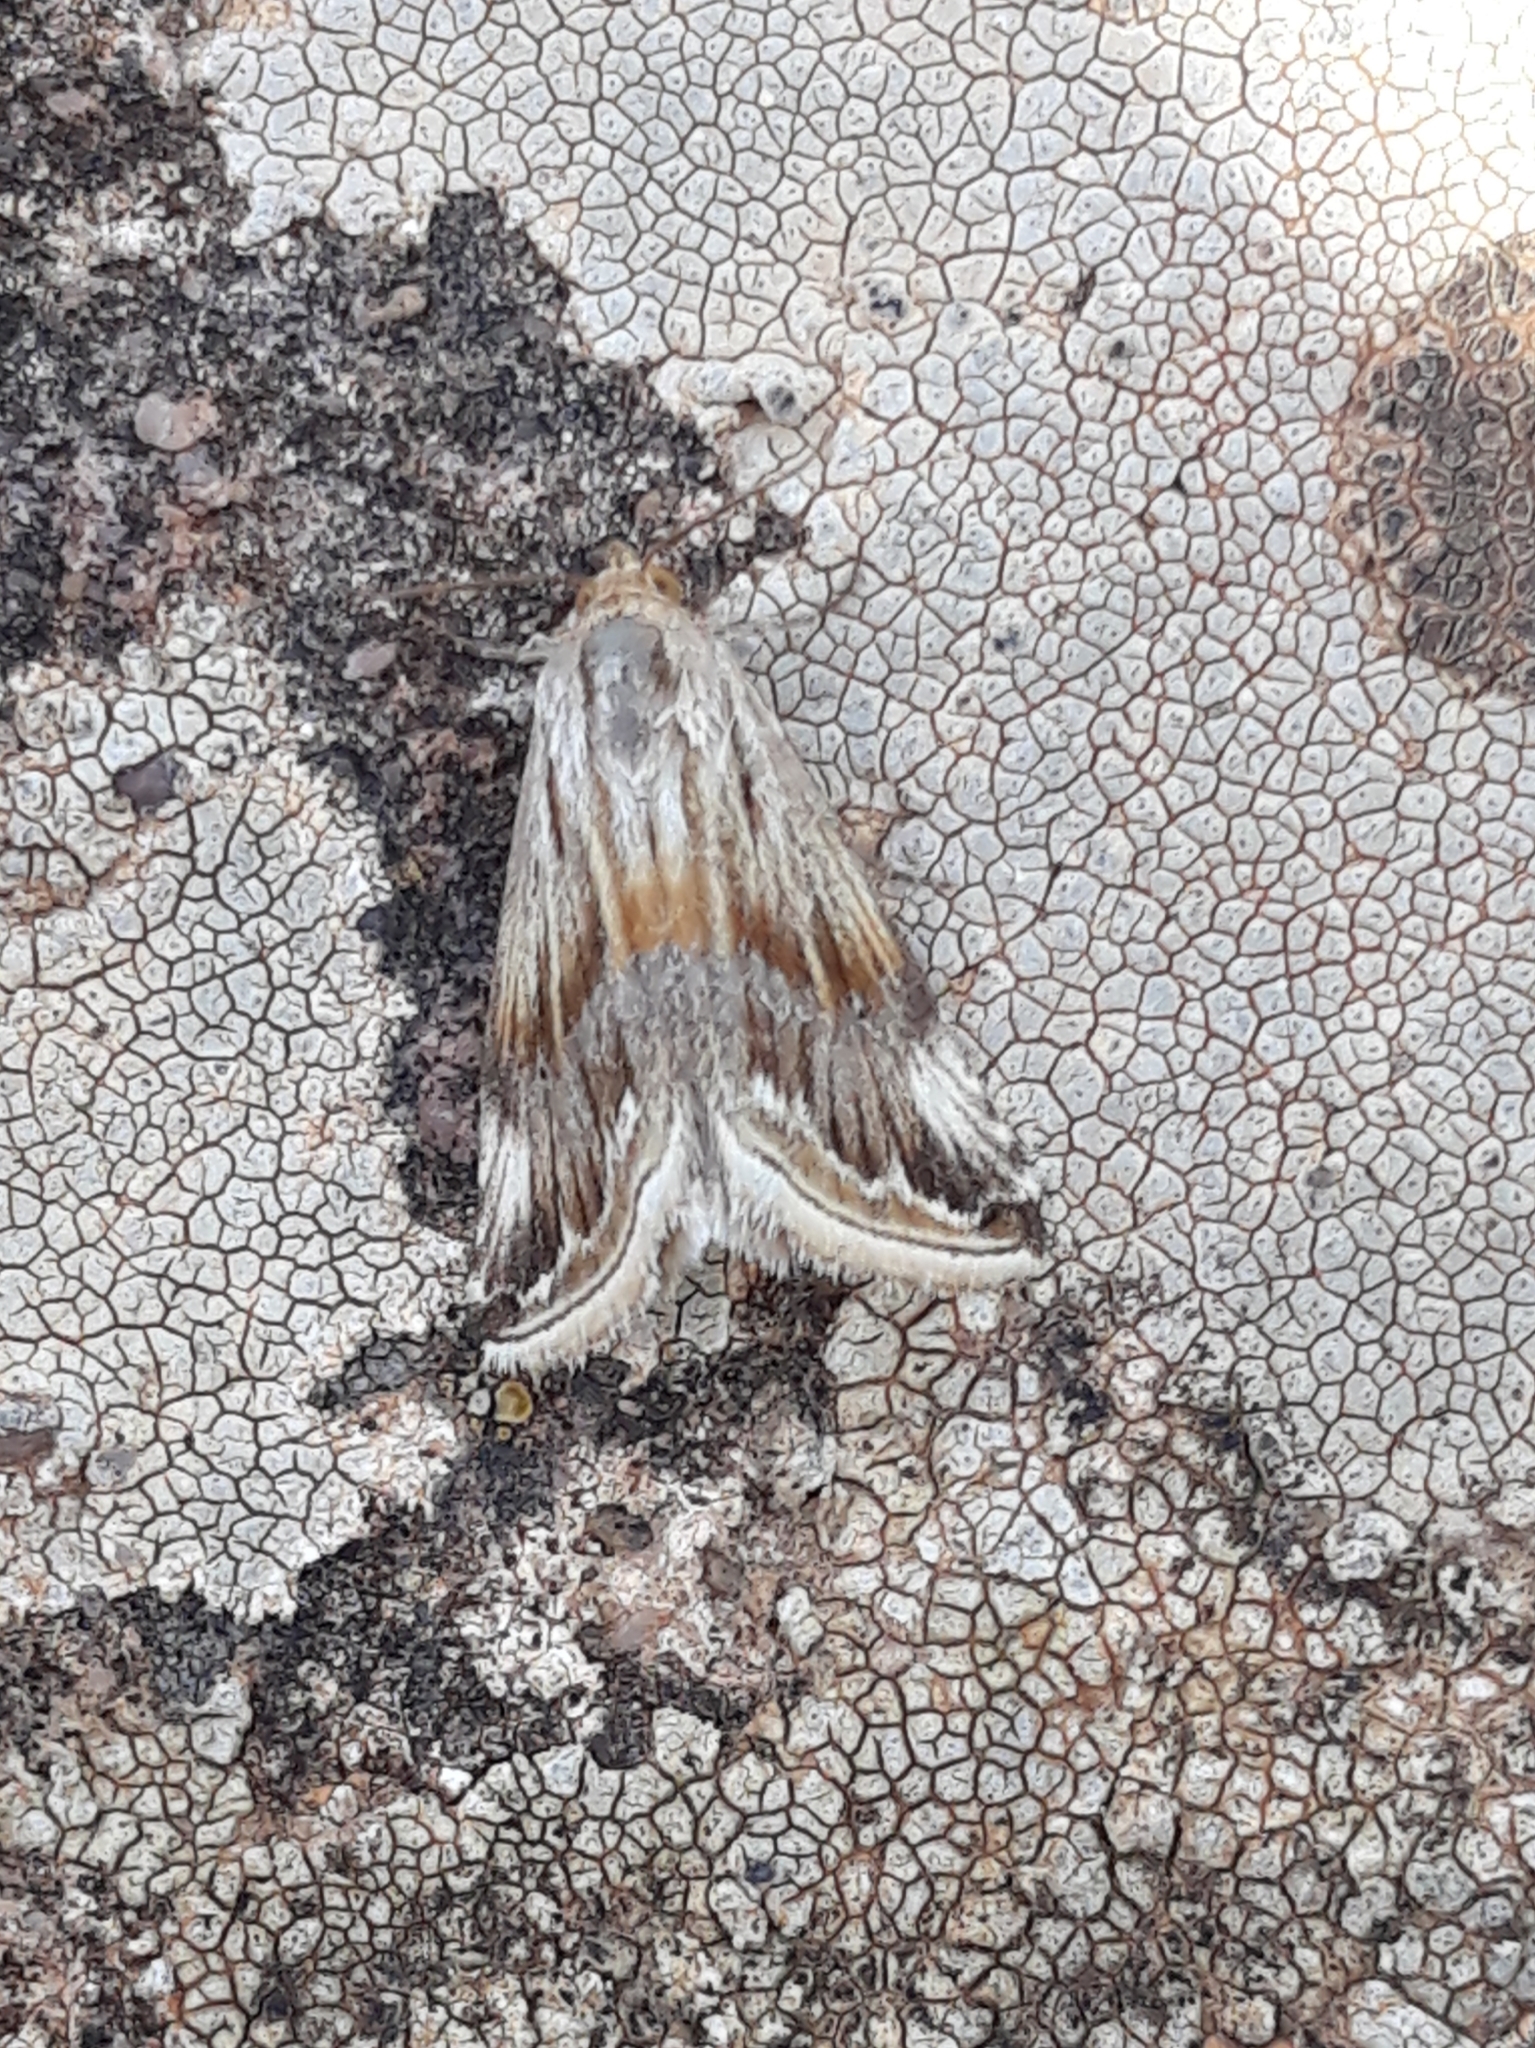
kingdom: Animalia
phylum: Arthropoda
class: Insecta
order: Lepidoptera
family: Noctuidae
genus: Eublemma
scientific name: Eublemma ostrina
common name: Purple marbled
